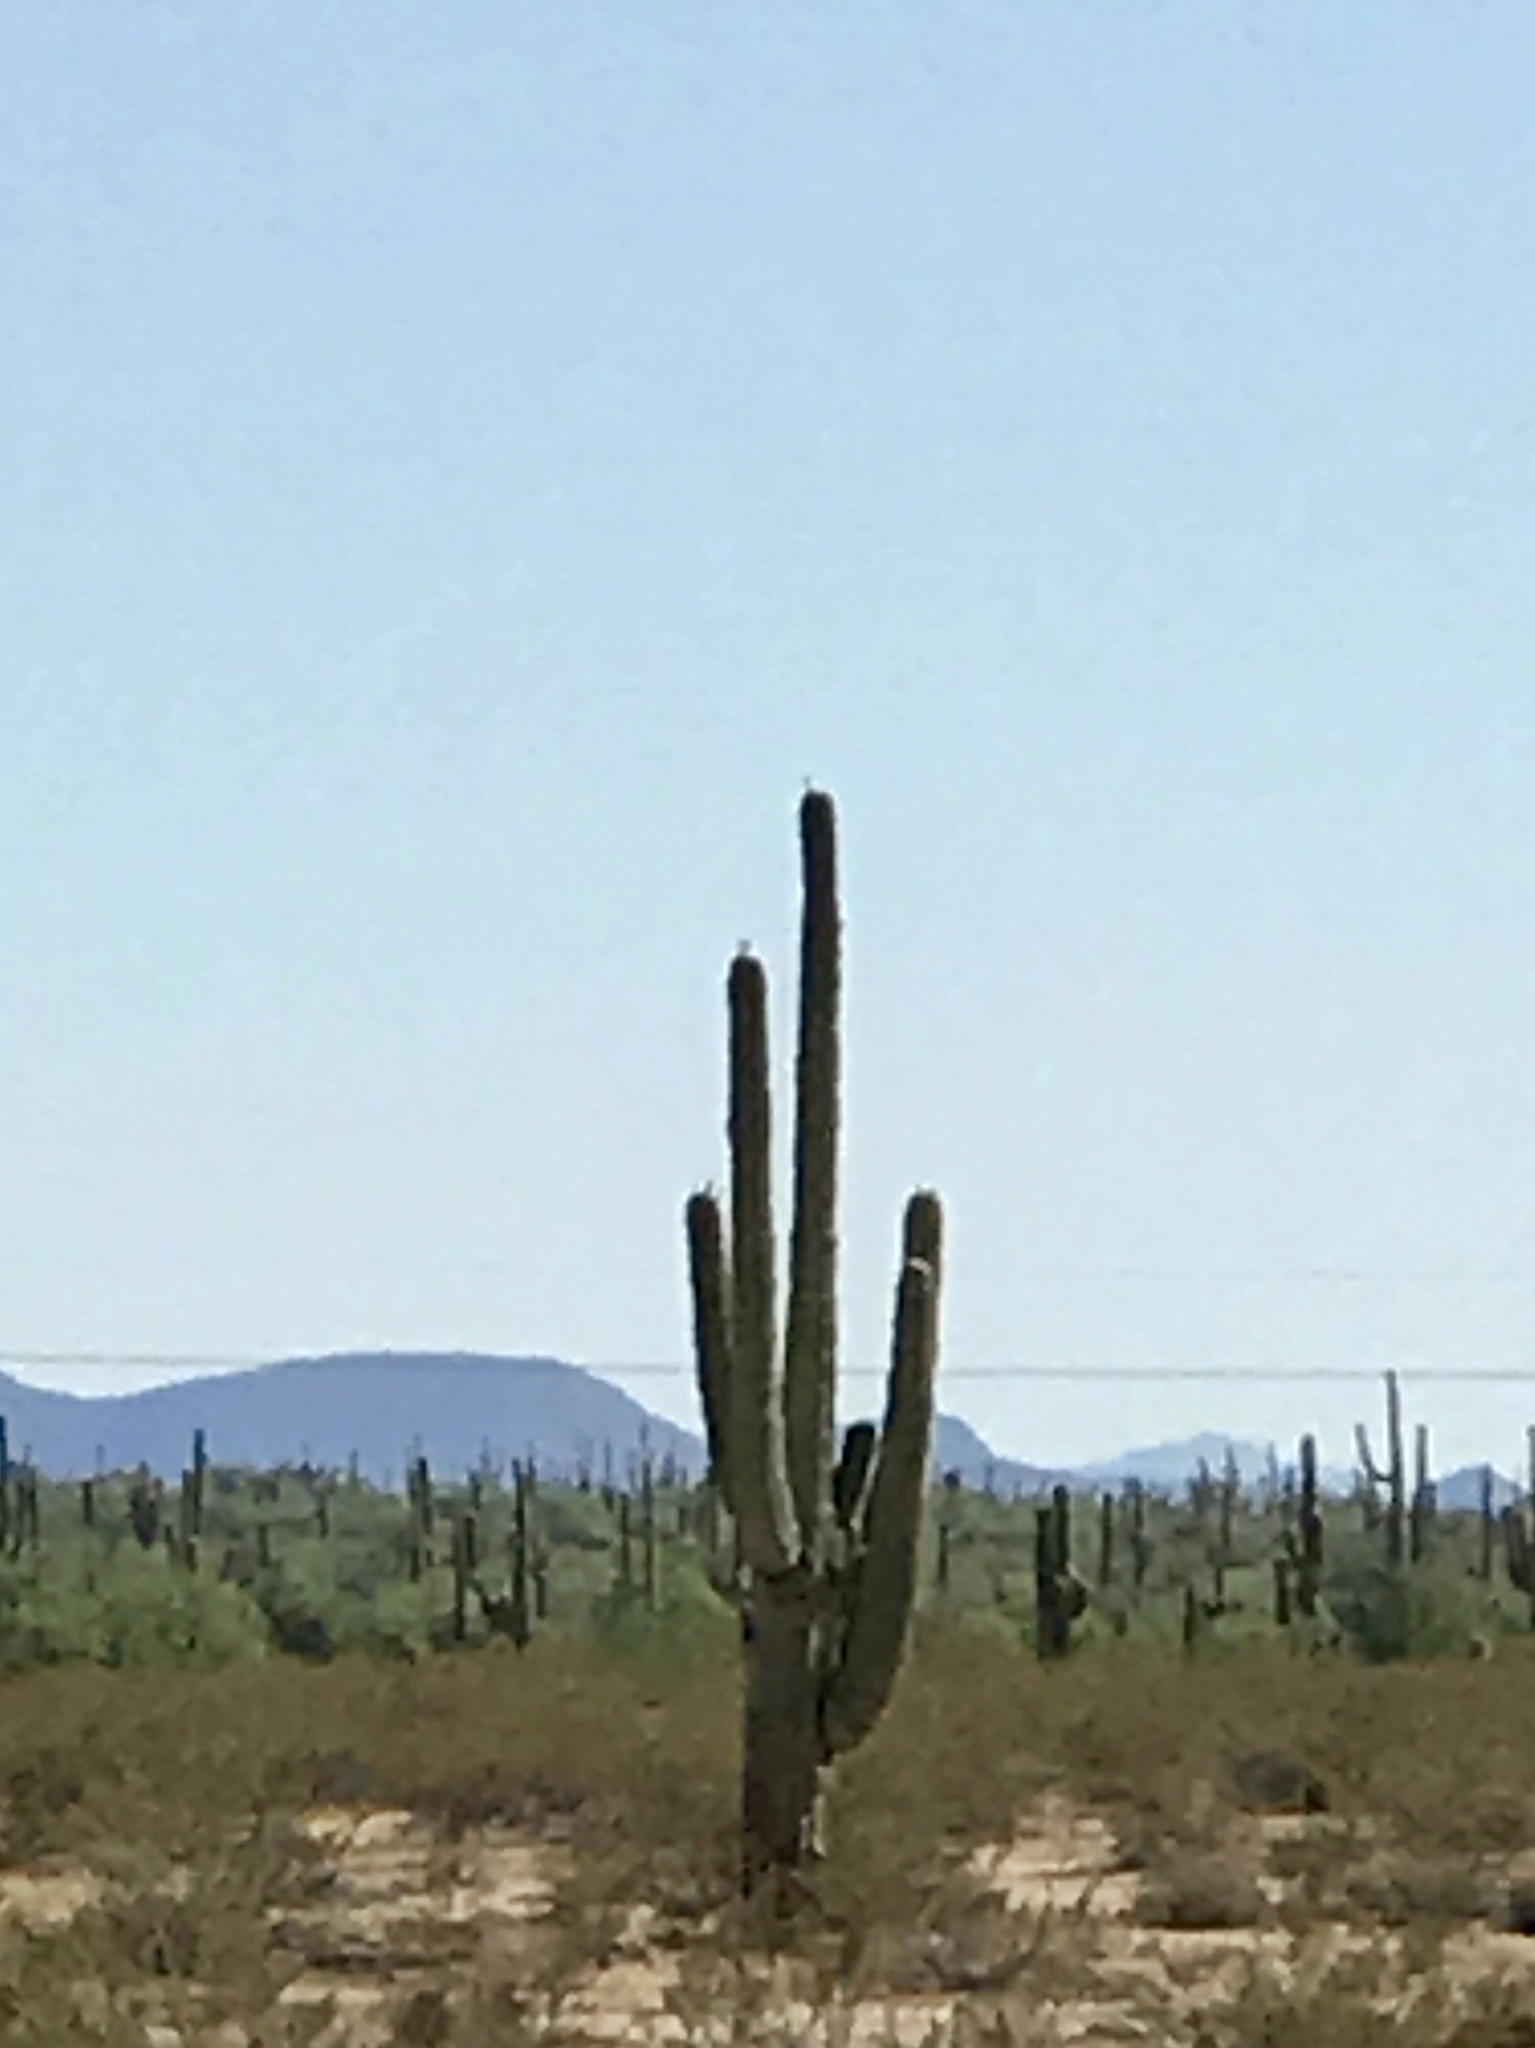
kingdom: Plantae
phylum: Tracheophyta
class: Magnoliopsida
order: Caryophyllales
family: Cactaceae
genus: Carnegiea
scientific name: Carnegiea gigantea
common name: Saguaro
